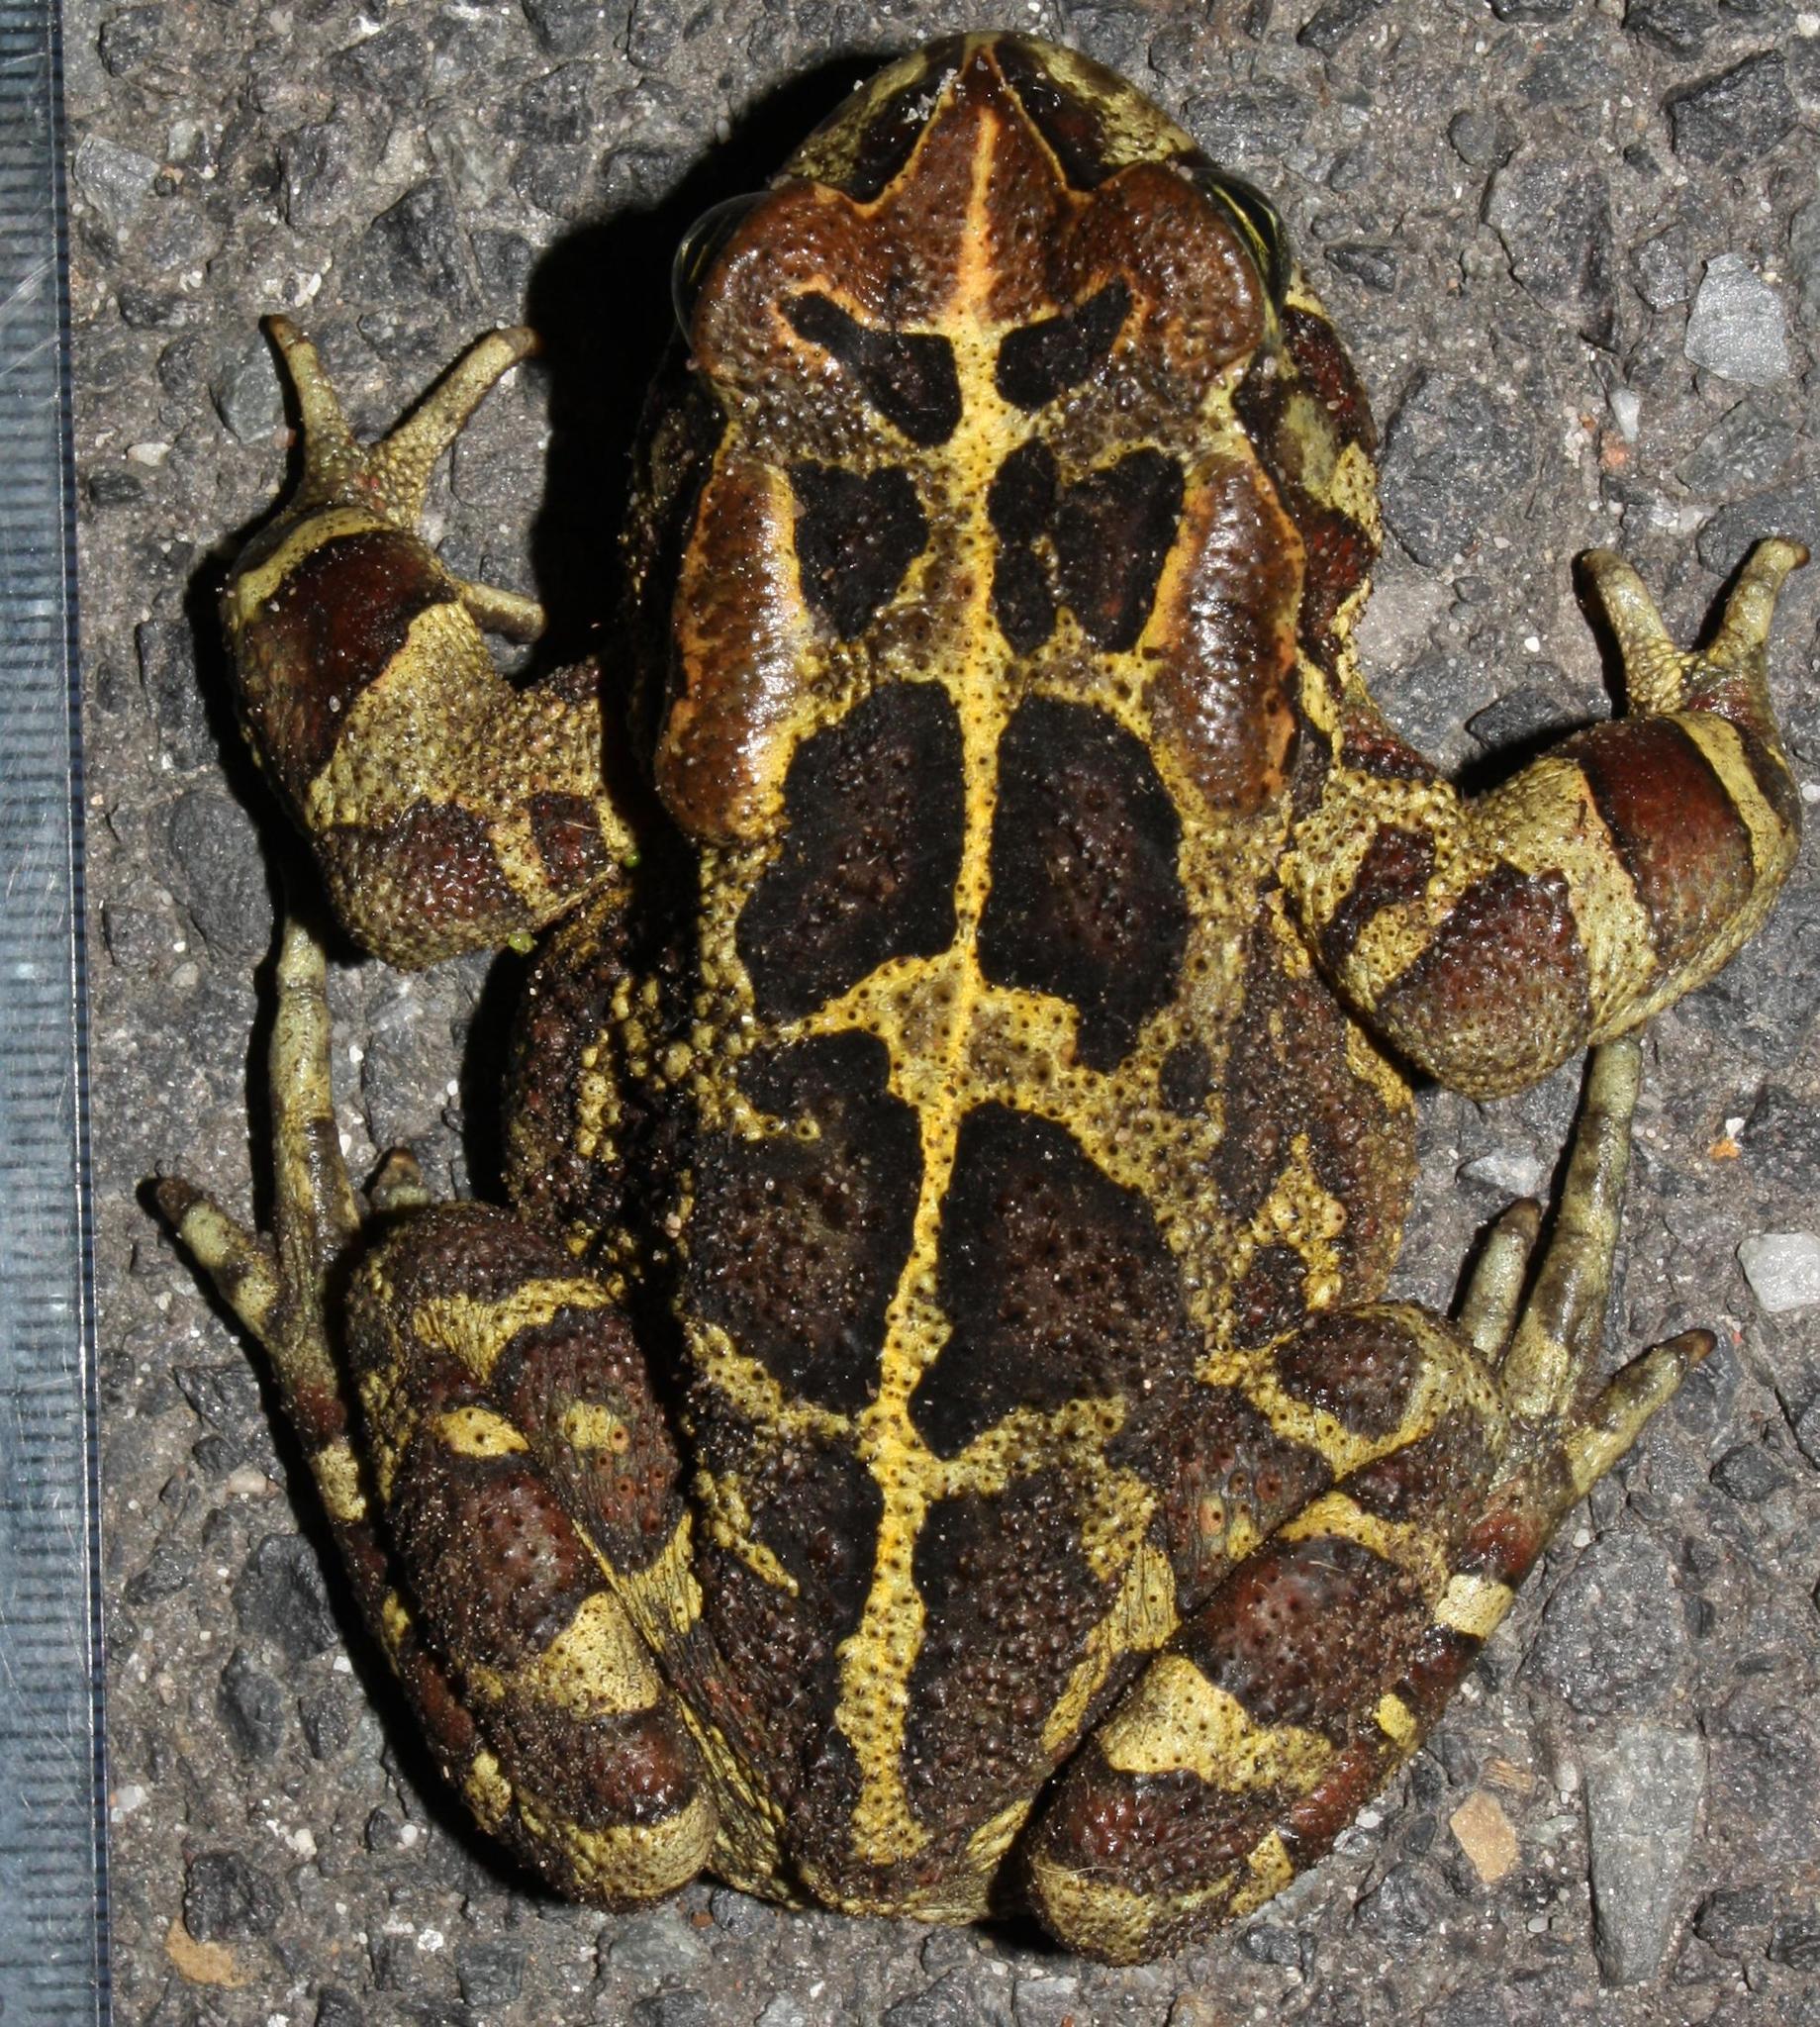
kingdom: Animalia
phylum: Chordata
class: Amphibia
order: Anura
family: Bufonidae
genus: Sclerophrys
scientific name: Sclerophrys pantherina
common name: Panther toad
